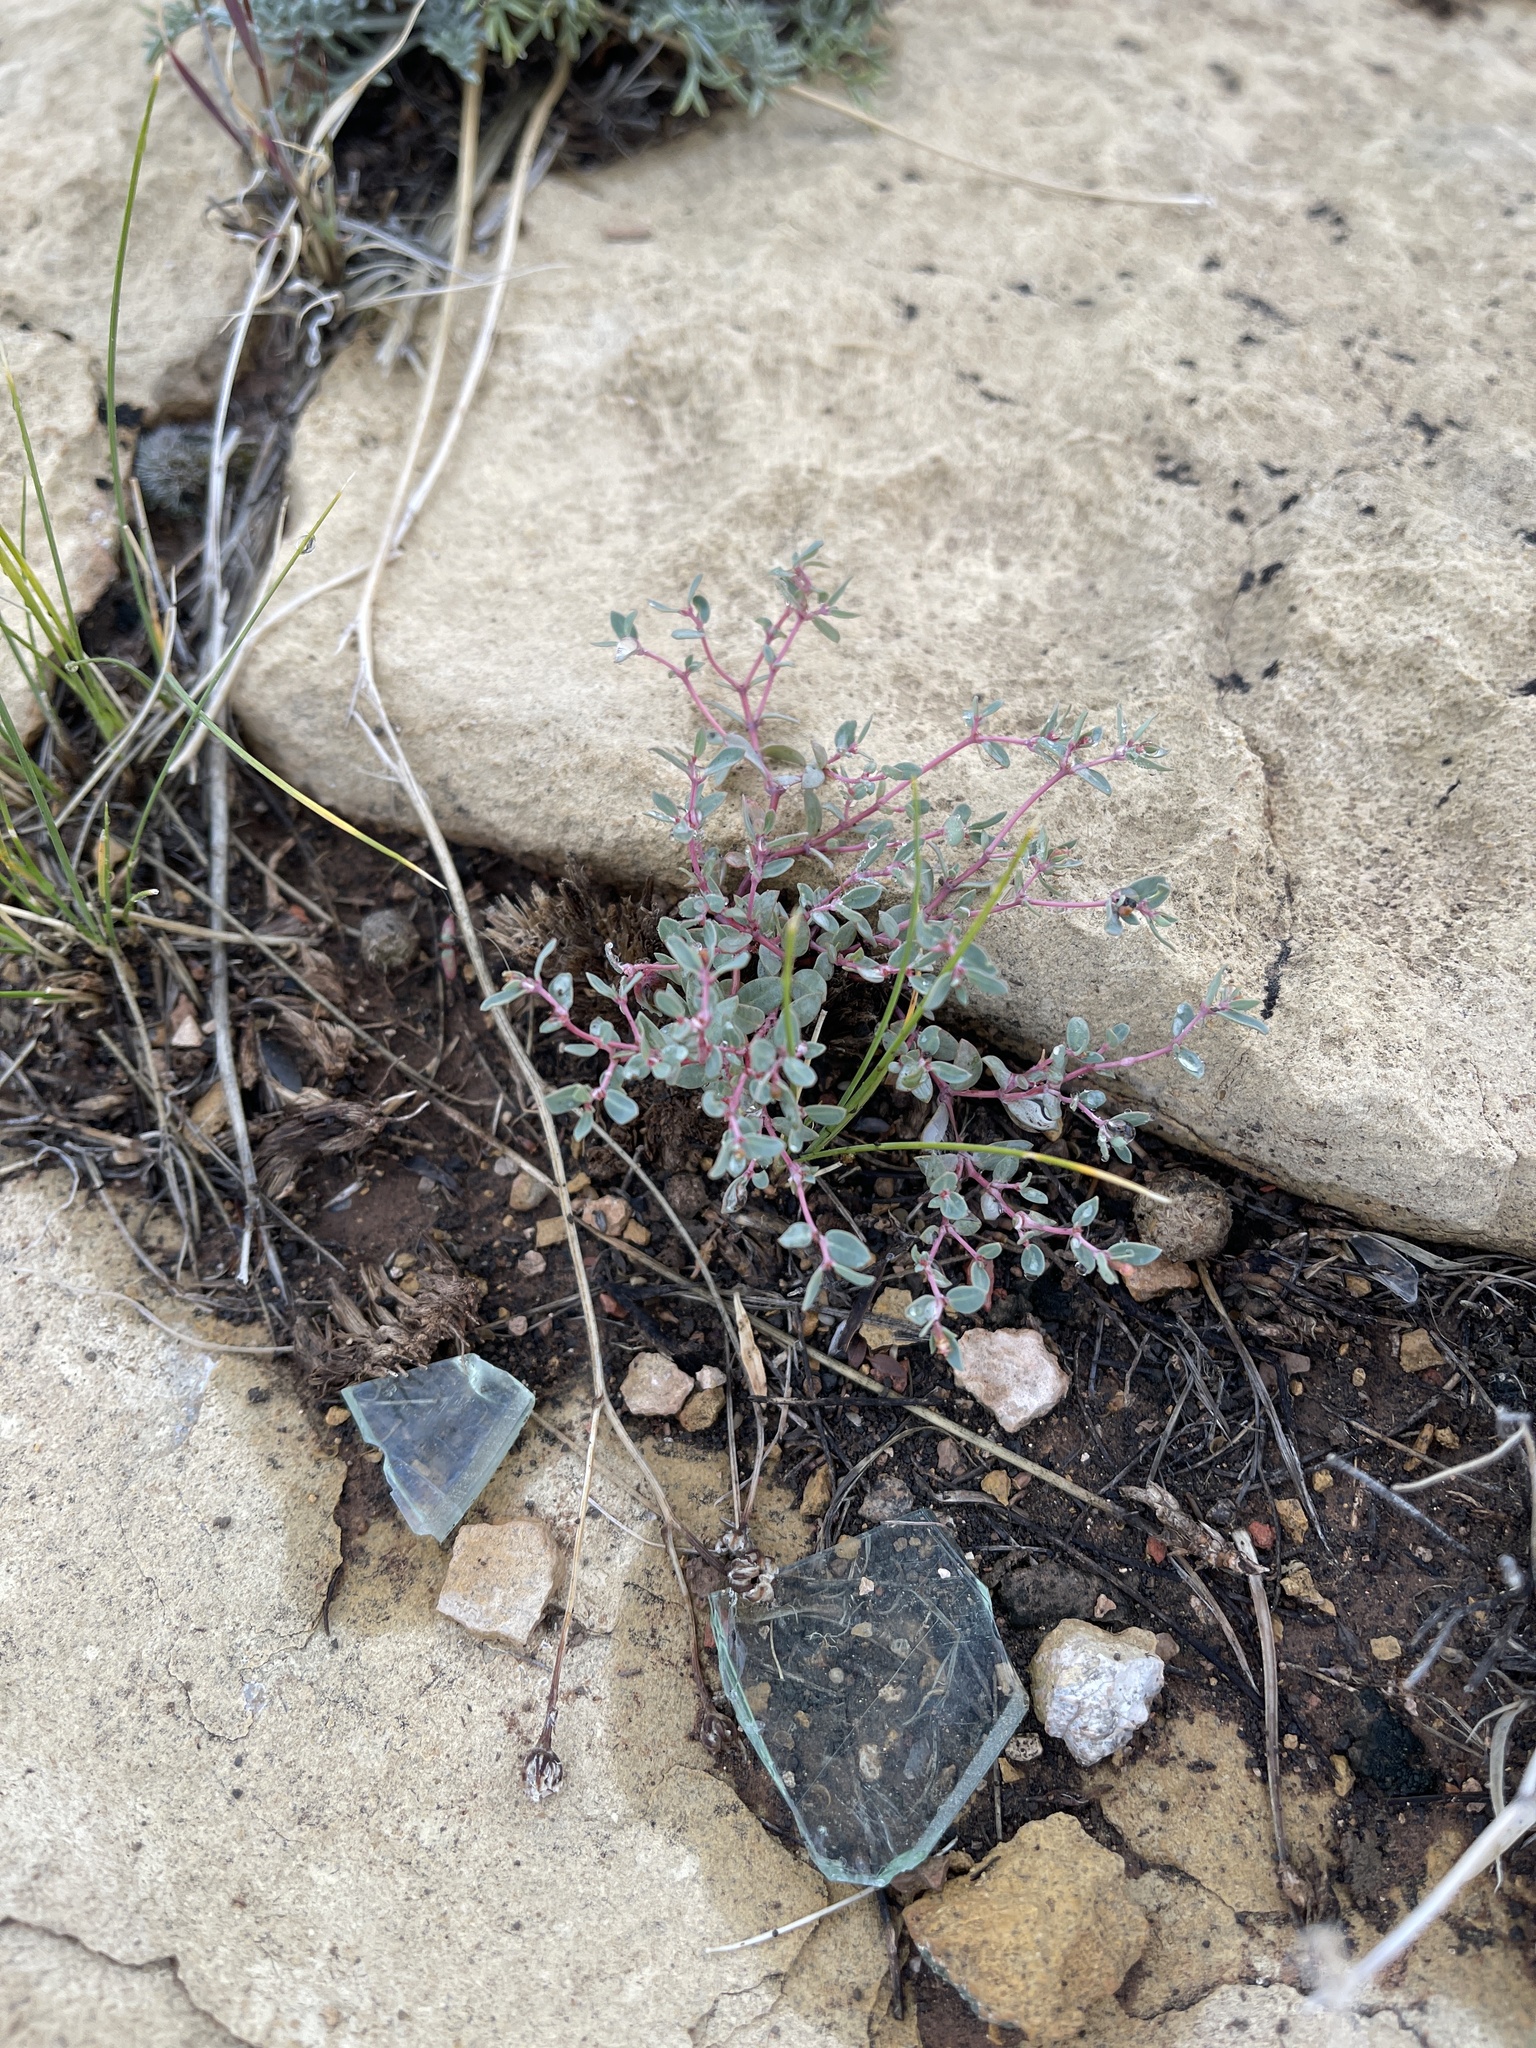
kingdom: Plantae
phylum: Tracheophyta
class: Magnoliopsida
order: Malpighiales
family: Euphorbiaceae
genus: Euphorbia
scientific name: Euphorbia fendleri
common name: Fendler's euphorbia
